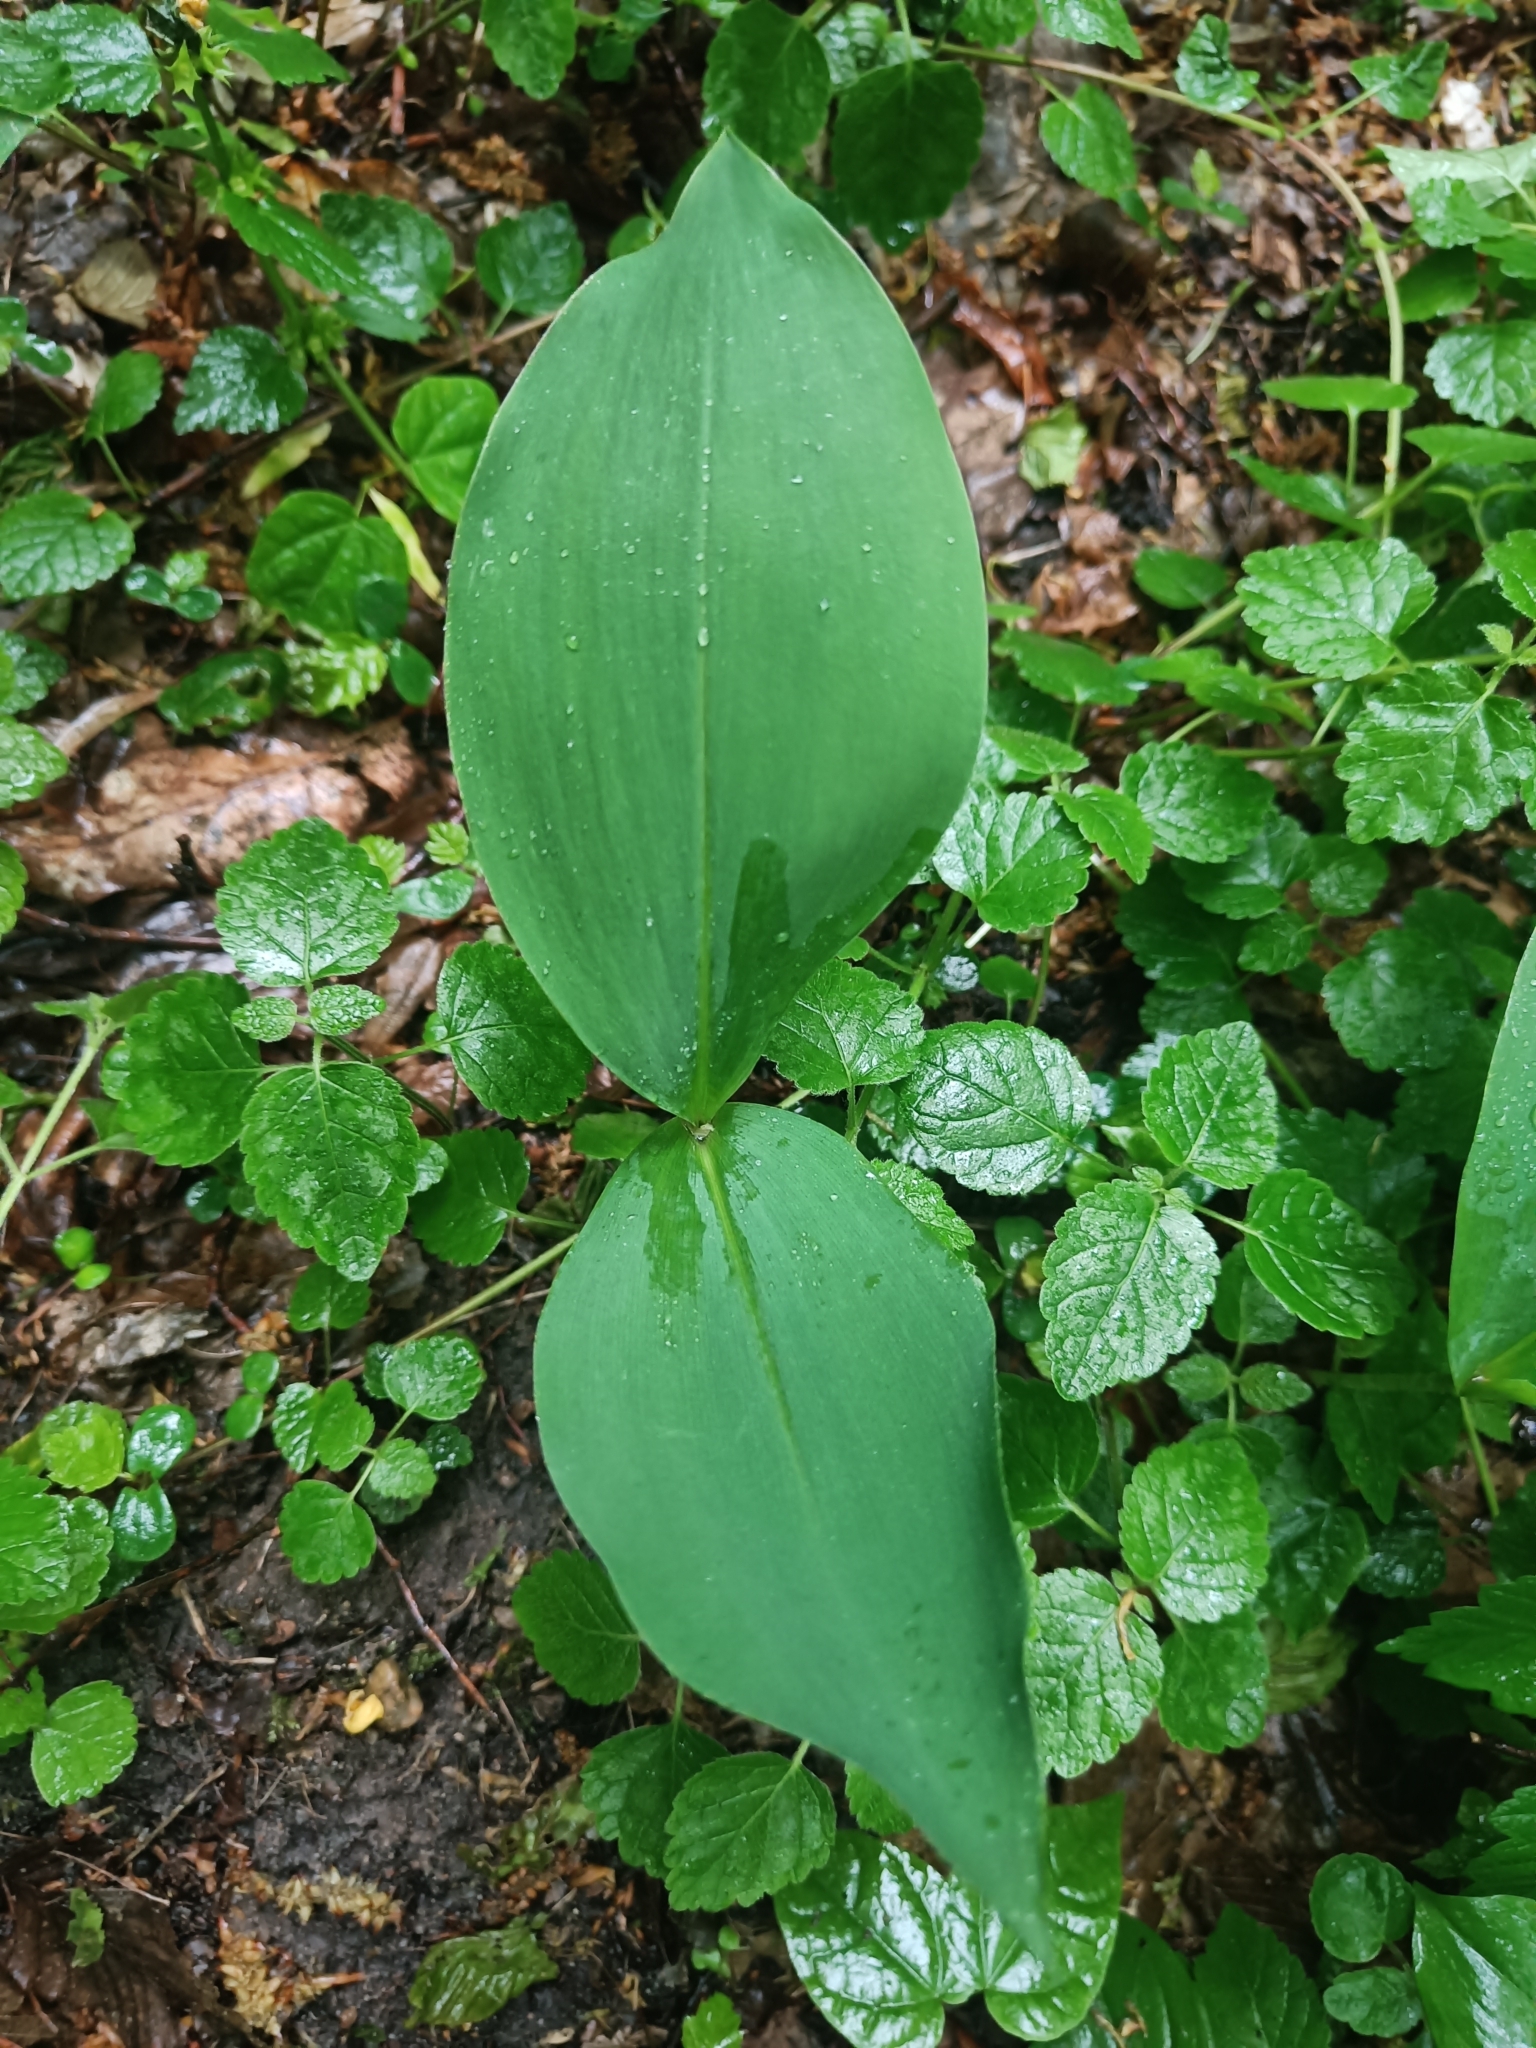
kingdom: Plantae
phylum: Tracheophyta
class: Liliopsida
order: Asparagales
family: Asparagaceae
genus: Convallaria
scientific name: Convallaria majalis
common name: Lily-of-the-valley
